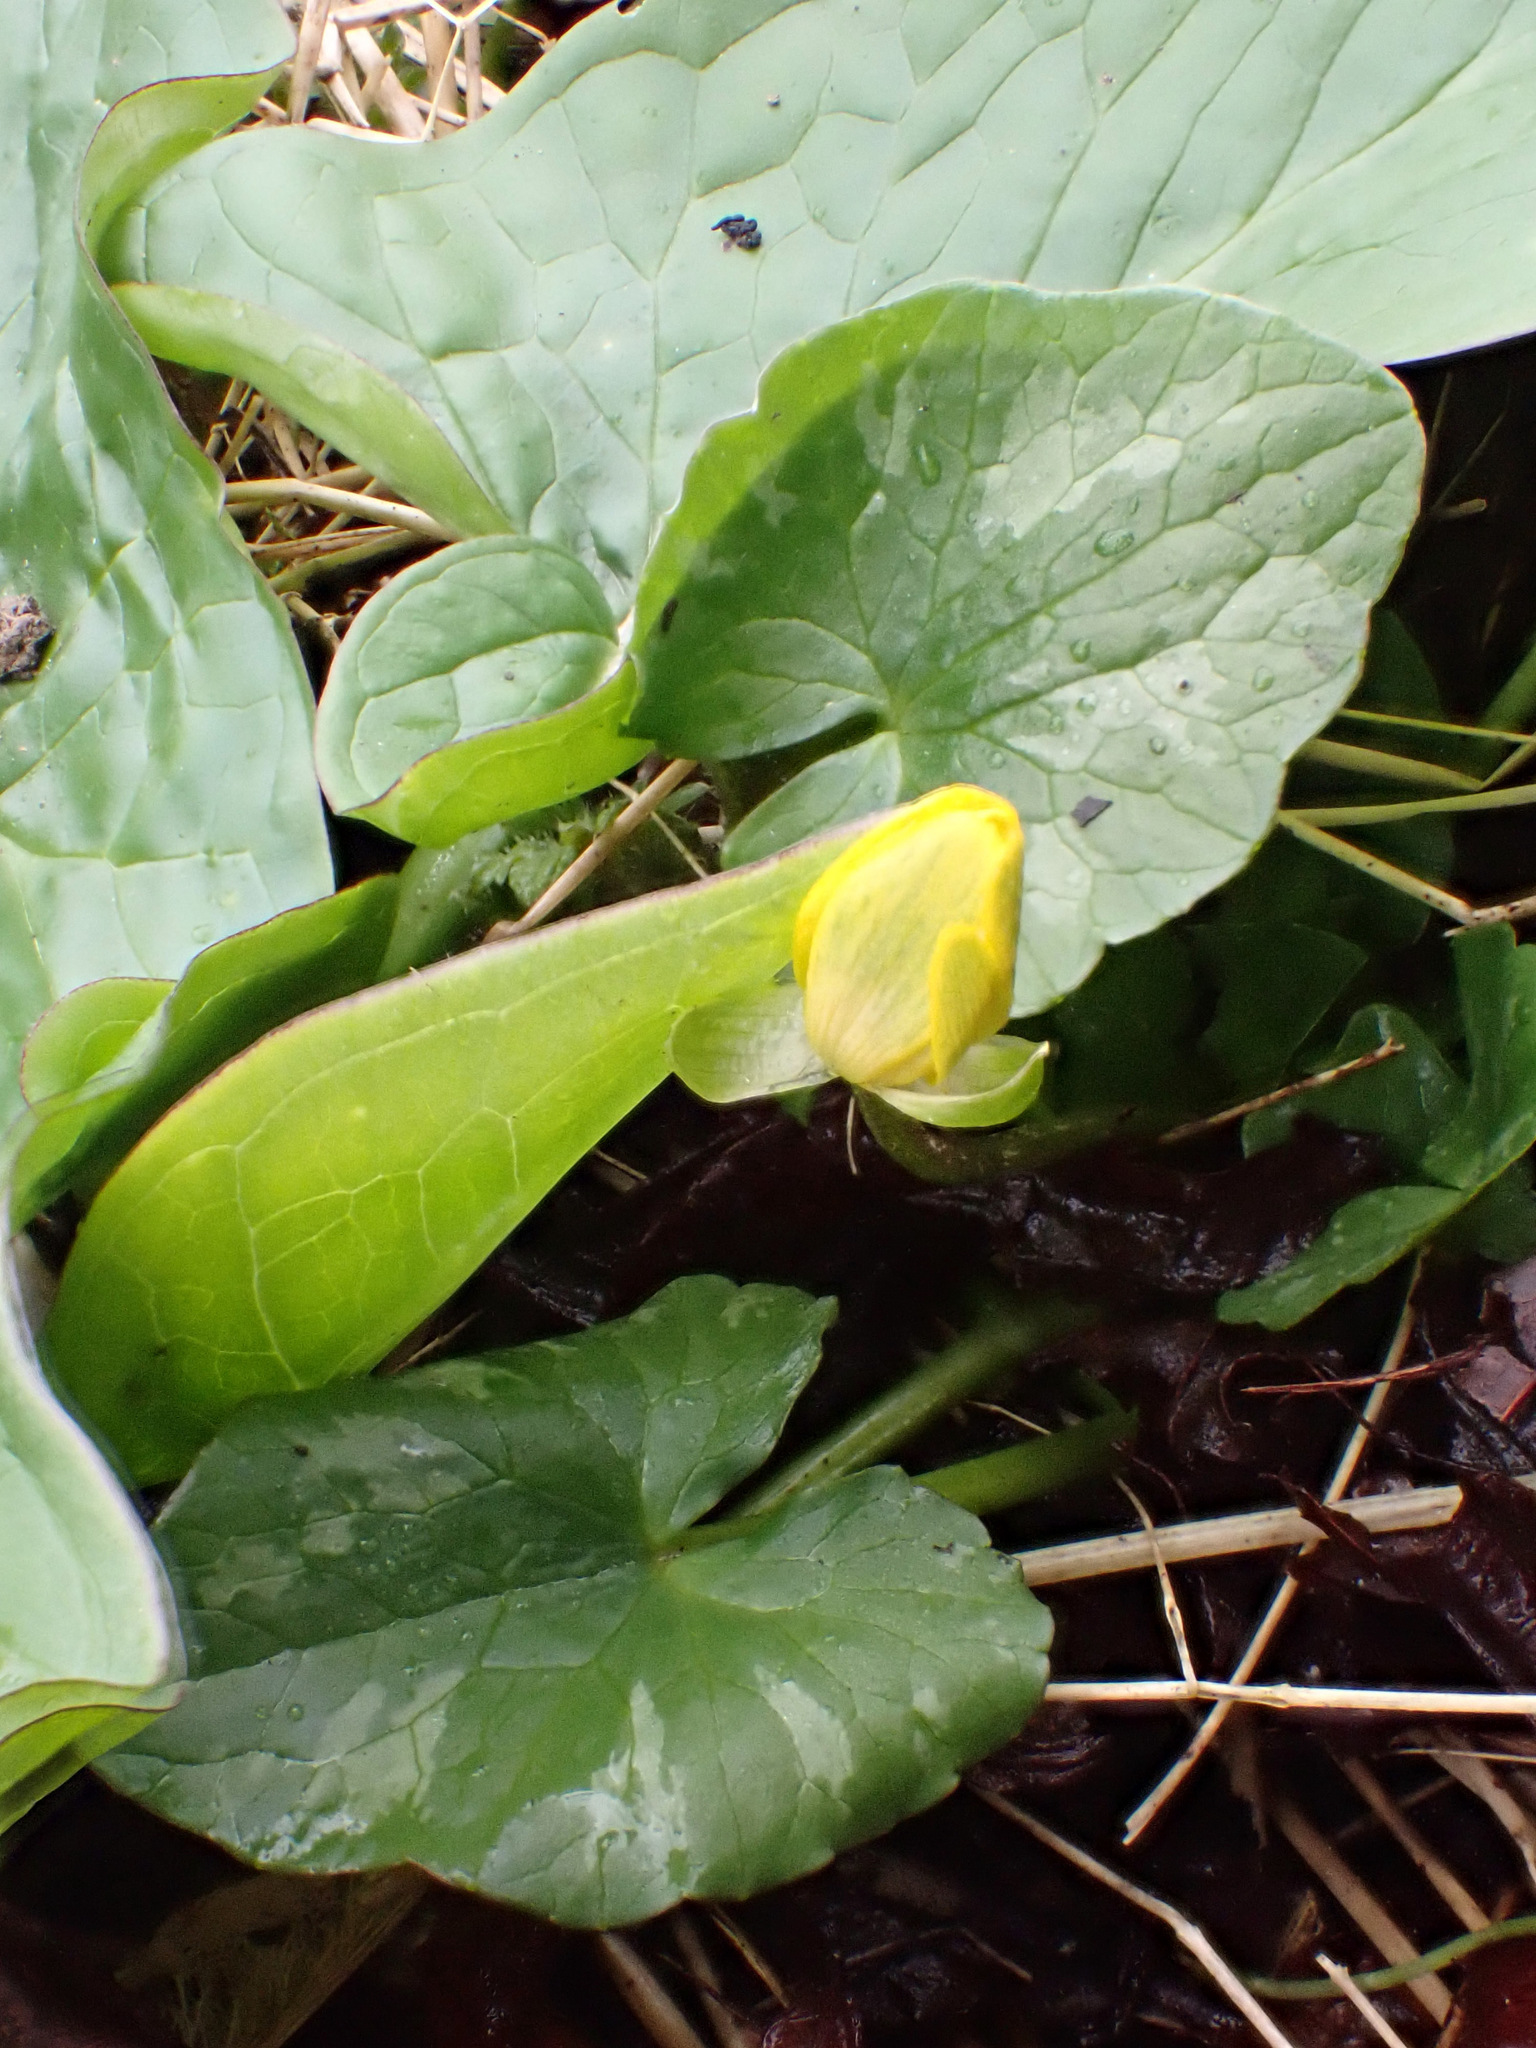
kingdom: Plantae
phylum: Tracheophyta
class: Magnoliopsida
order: Ranunculales
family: Ranunculaceae
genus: Ficaria
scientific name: Ficaria verna
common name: Lesser celandine
